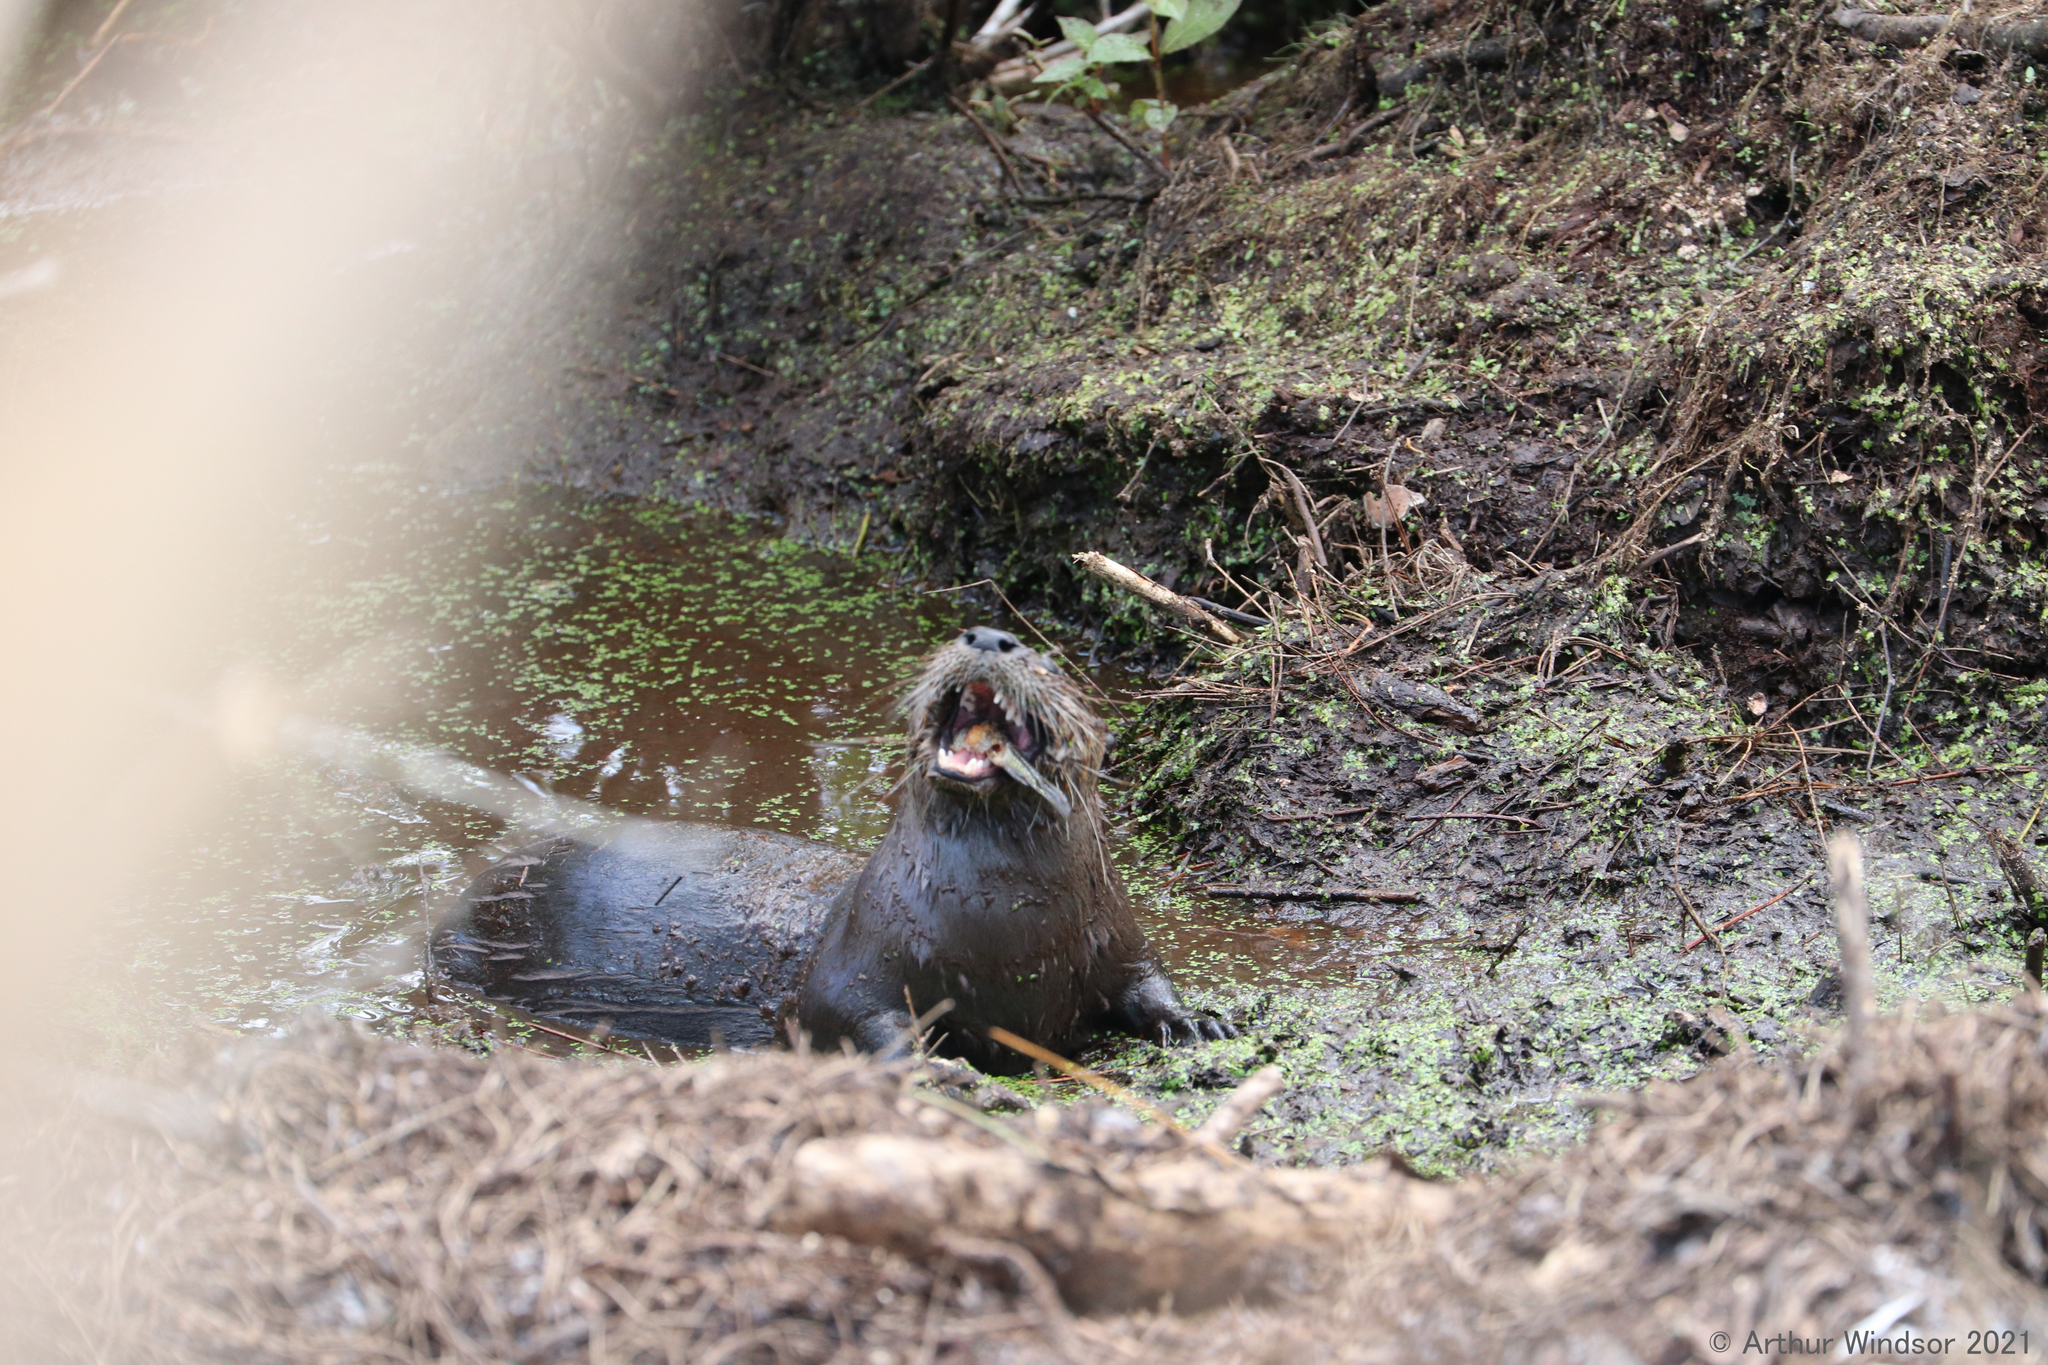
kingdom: Animalia
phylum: Chordata
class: Mammalia
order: Carnivora
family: Mustelidae
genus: Lontra
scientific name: Lontra canadensis
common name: North american river otter
